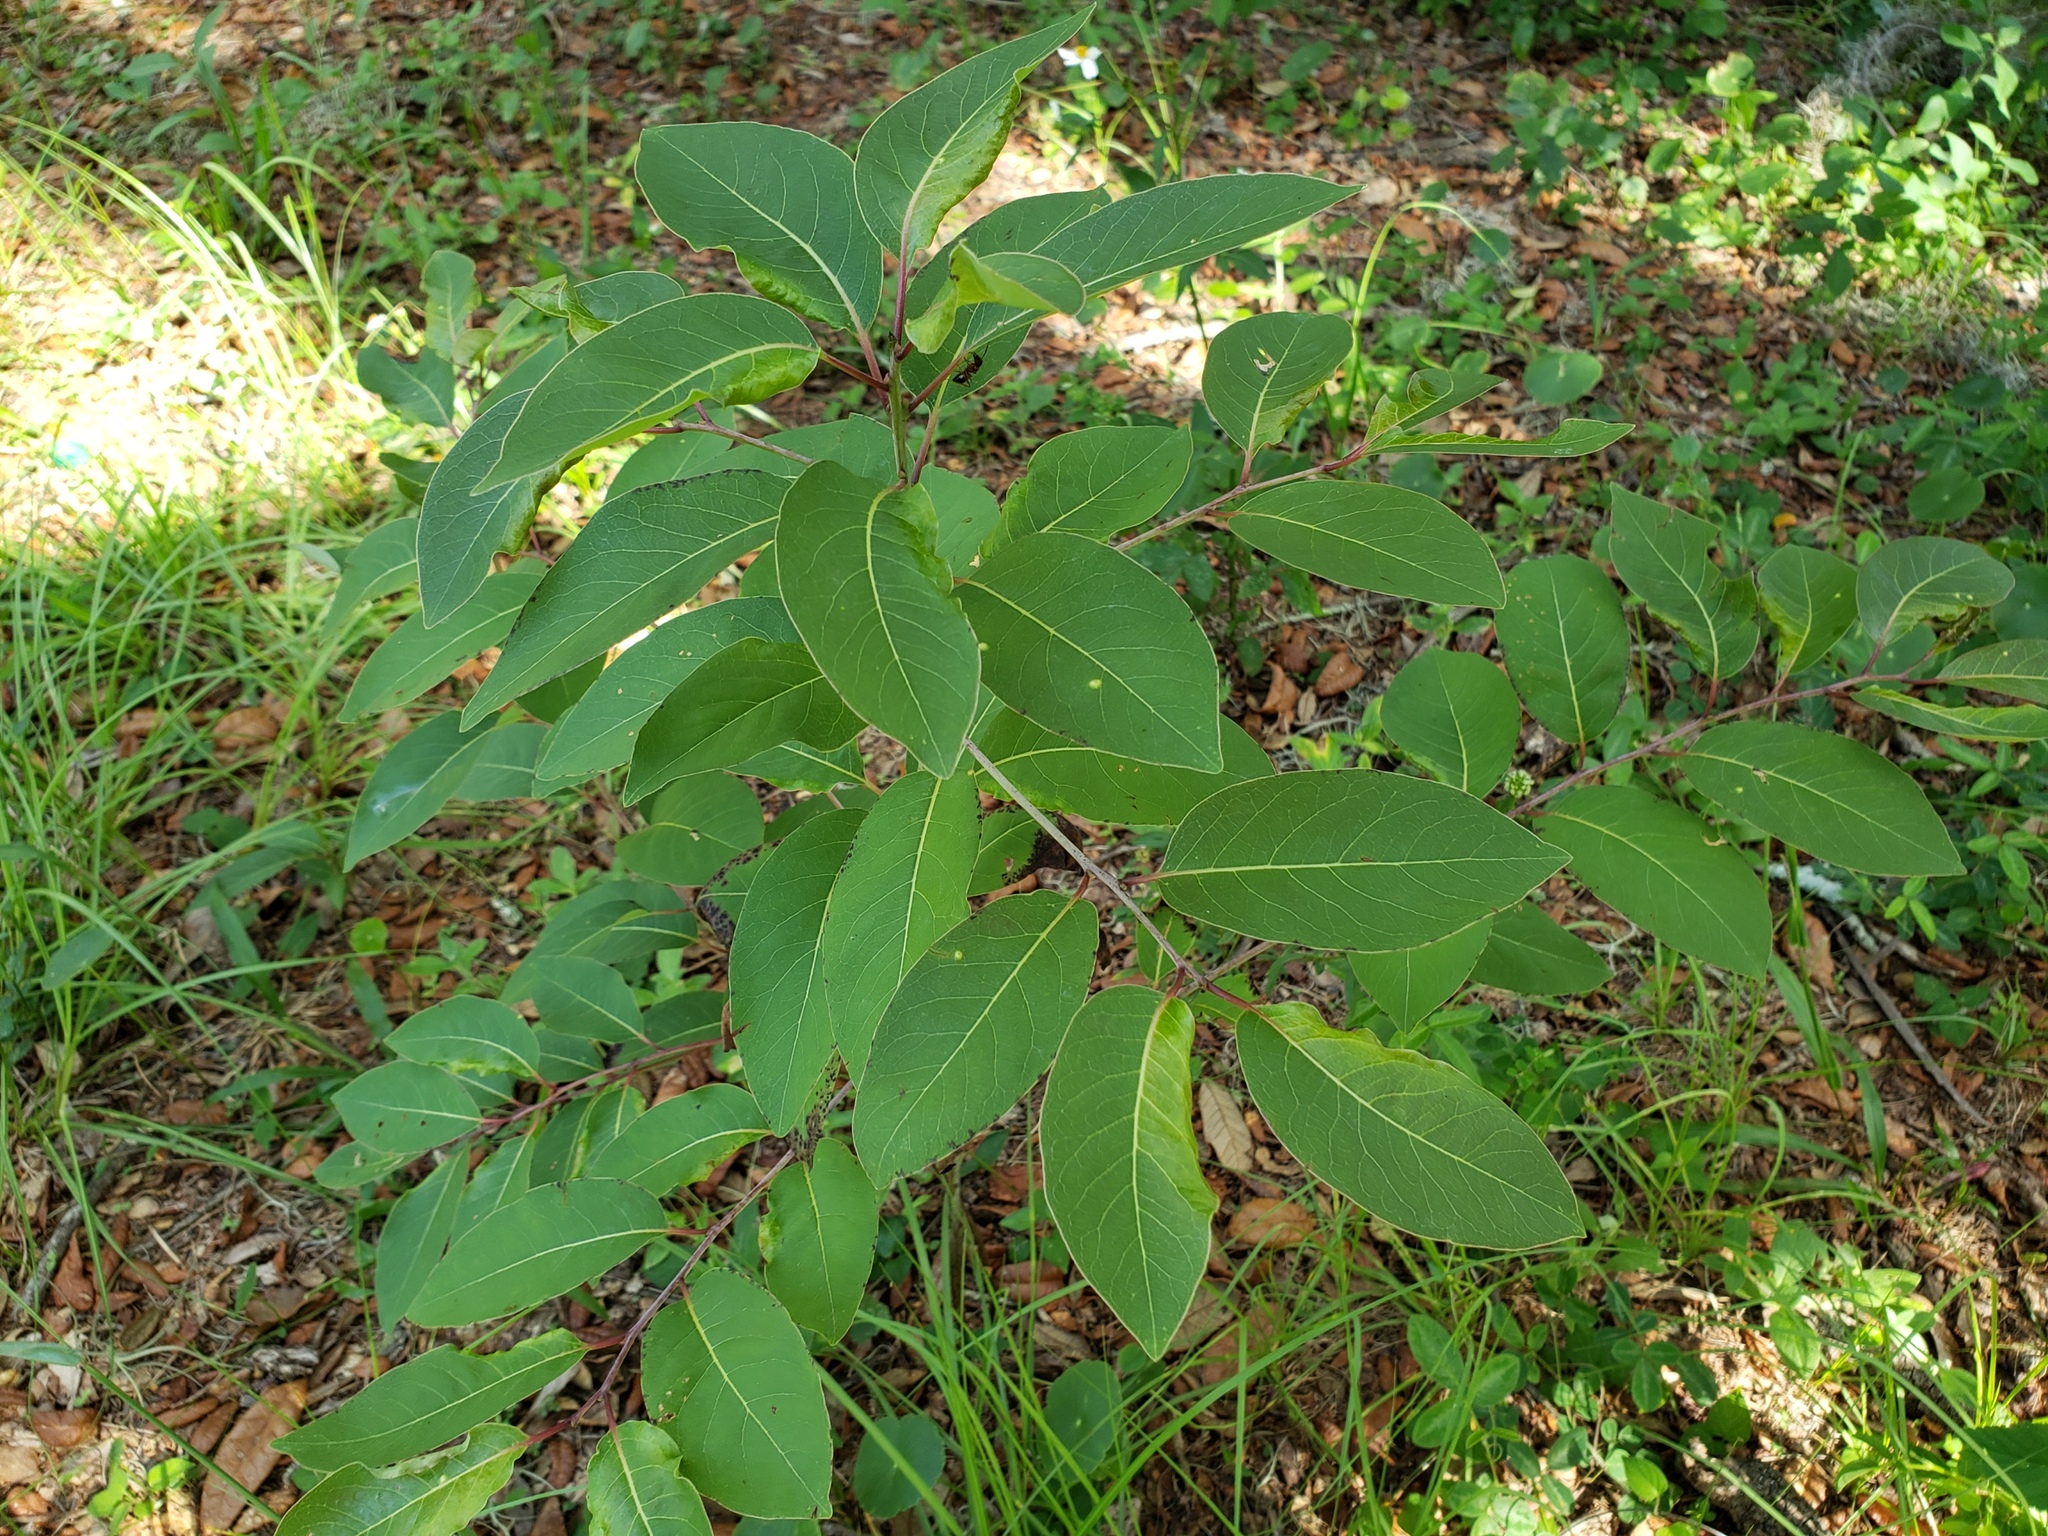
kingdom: Plantae
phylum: Tracheophyta
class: Magnoliopsida
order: Ericales
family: Ebenaceae
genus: Diospyros
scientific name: Diospyros virginiana
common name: Persimmon
